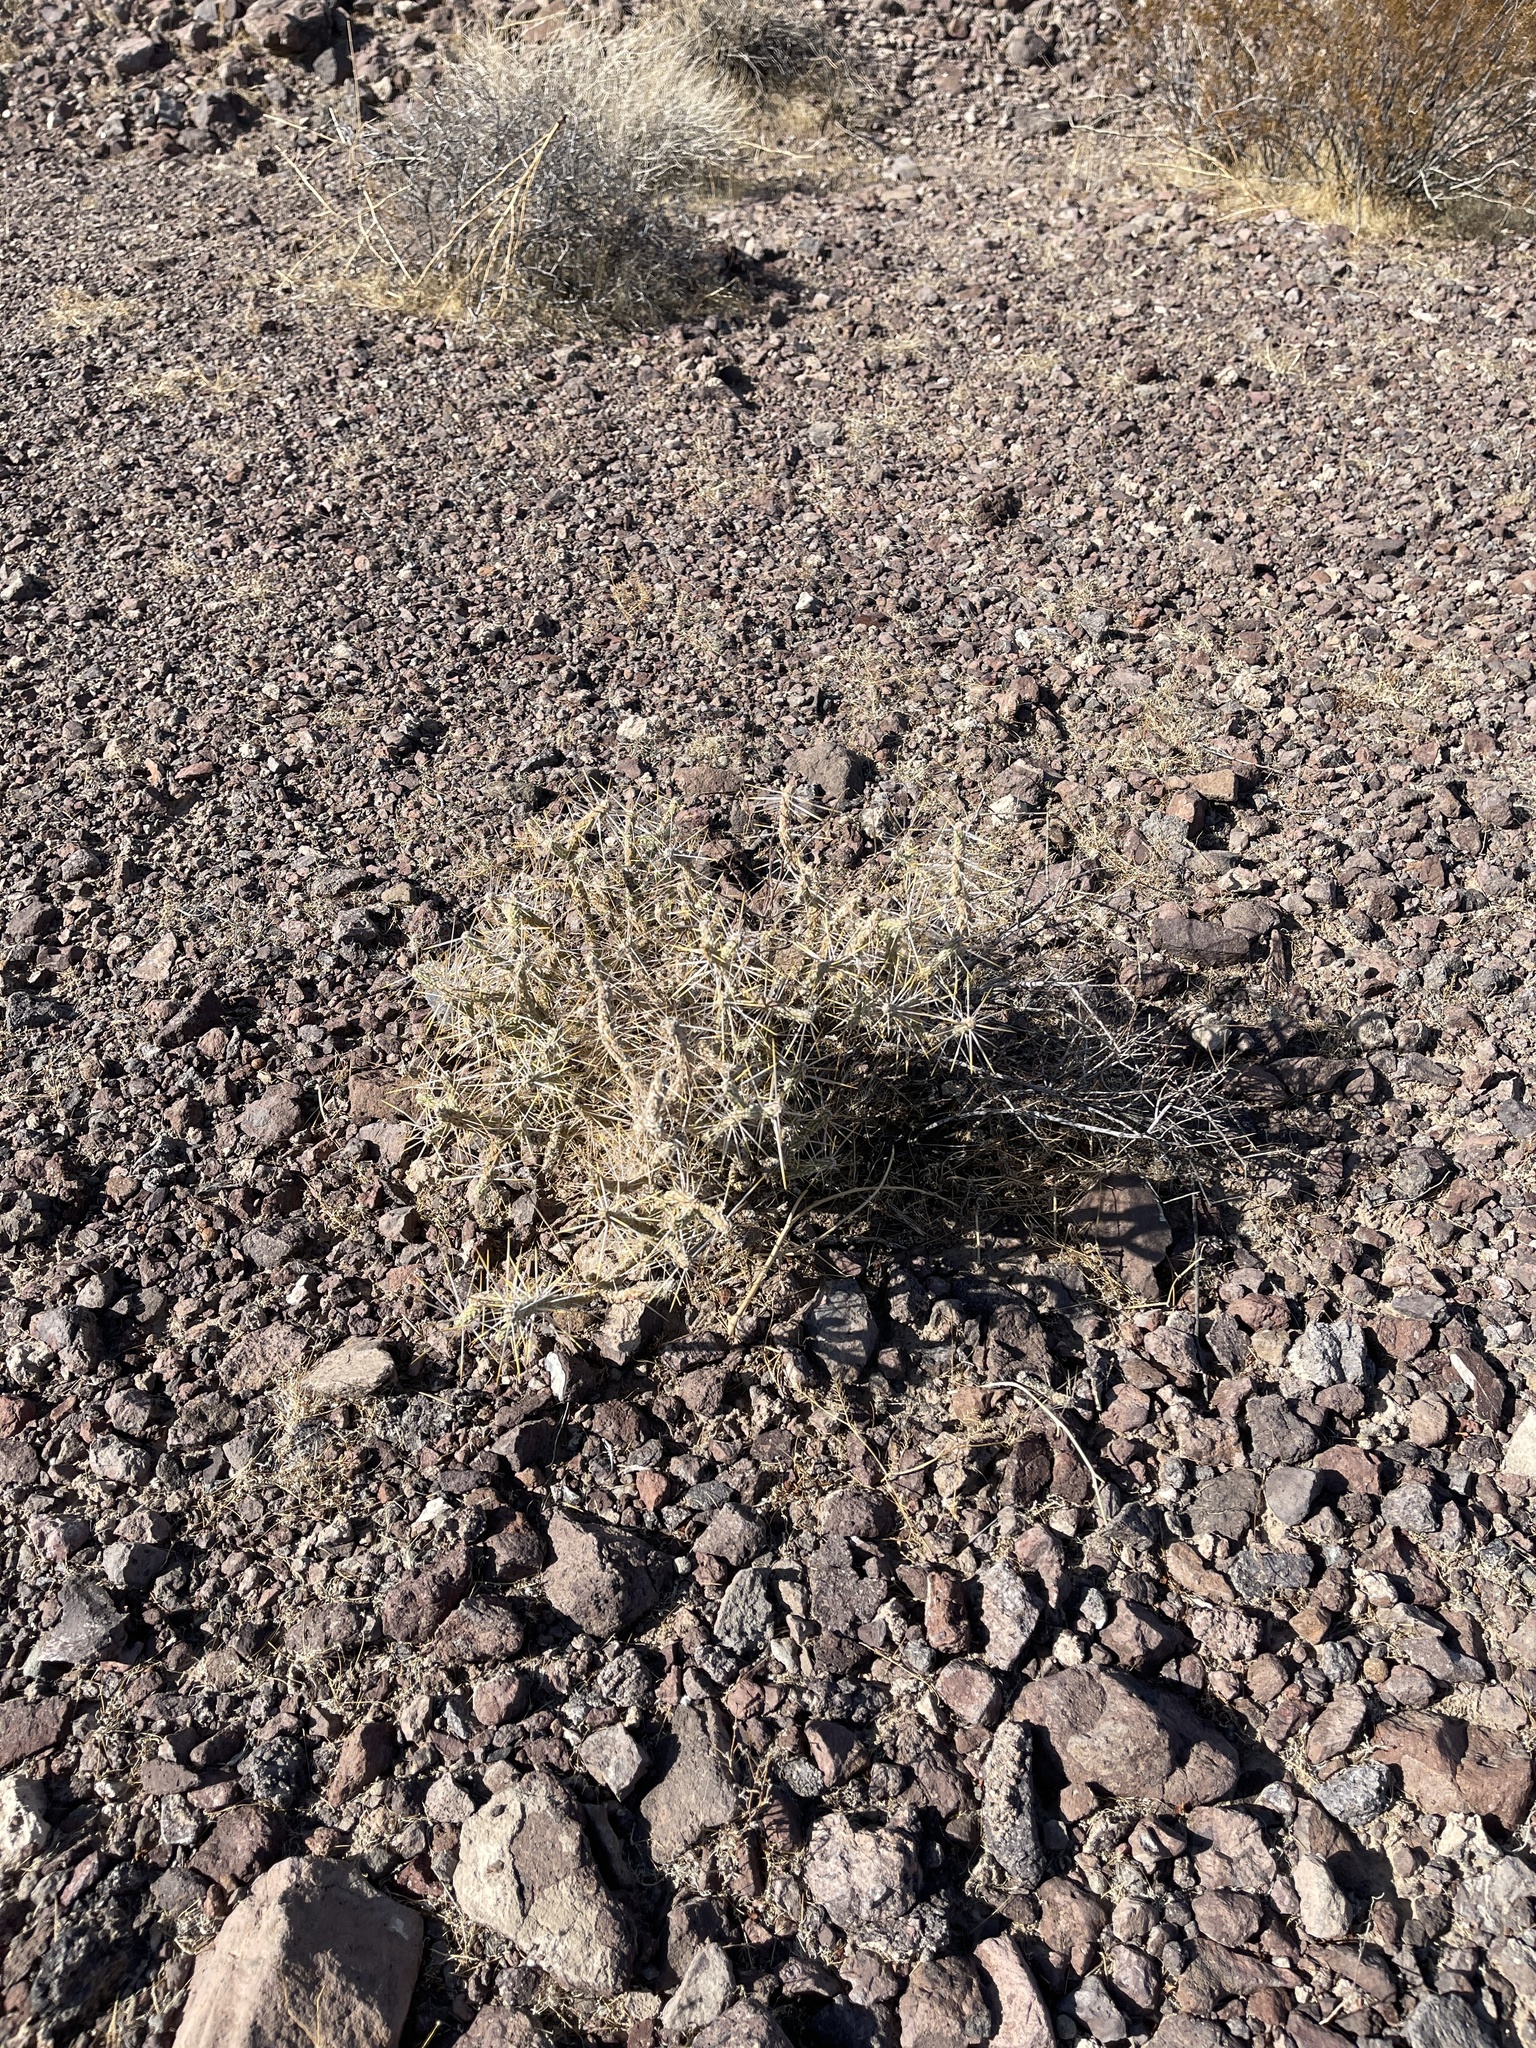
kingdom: Plantae
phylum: Tracheophyta
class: Magnoliopsida
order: Caryophyllales
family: Cactaceae
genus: Cylindropuntia
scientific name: Cylindropuntia ramosissima
